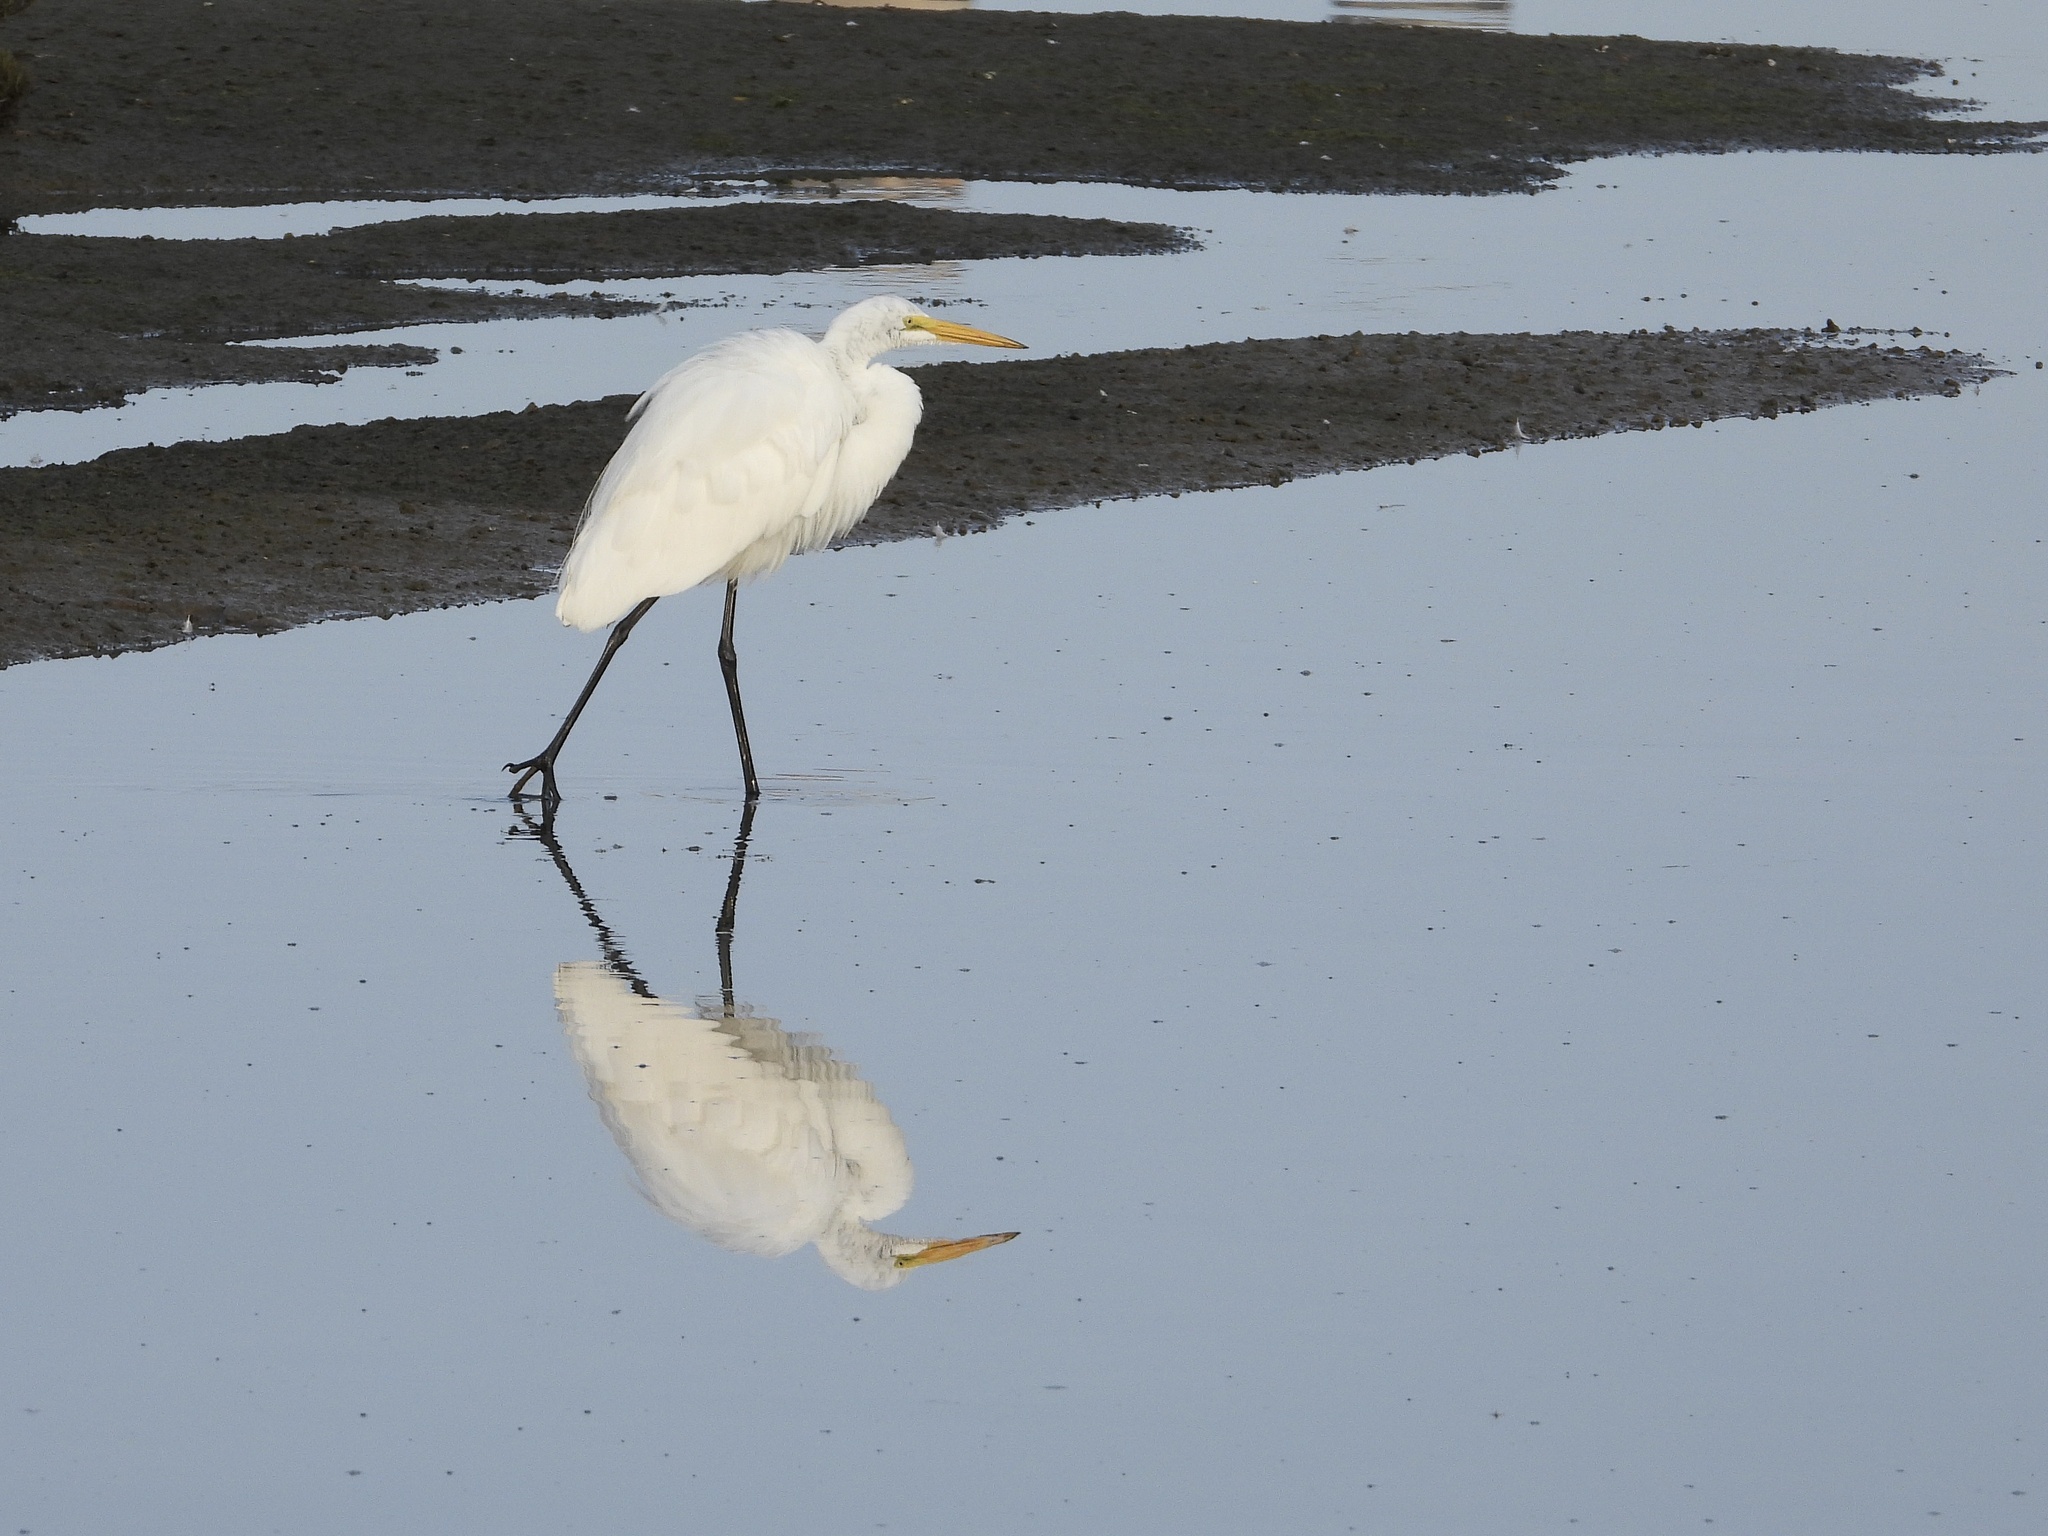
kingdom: Animalia
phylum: Chordata
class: Aves
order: Pelecaniformes
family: Ardeidae
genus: Ardea
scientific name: Ardea alba
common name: Great egret
